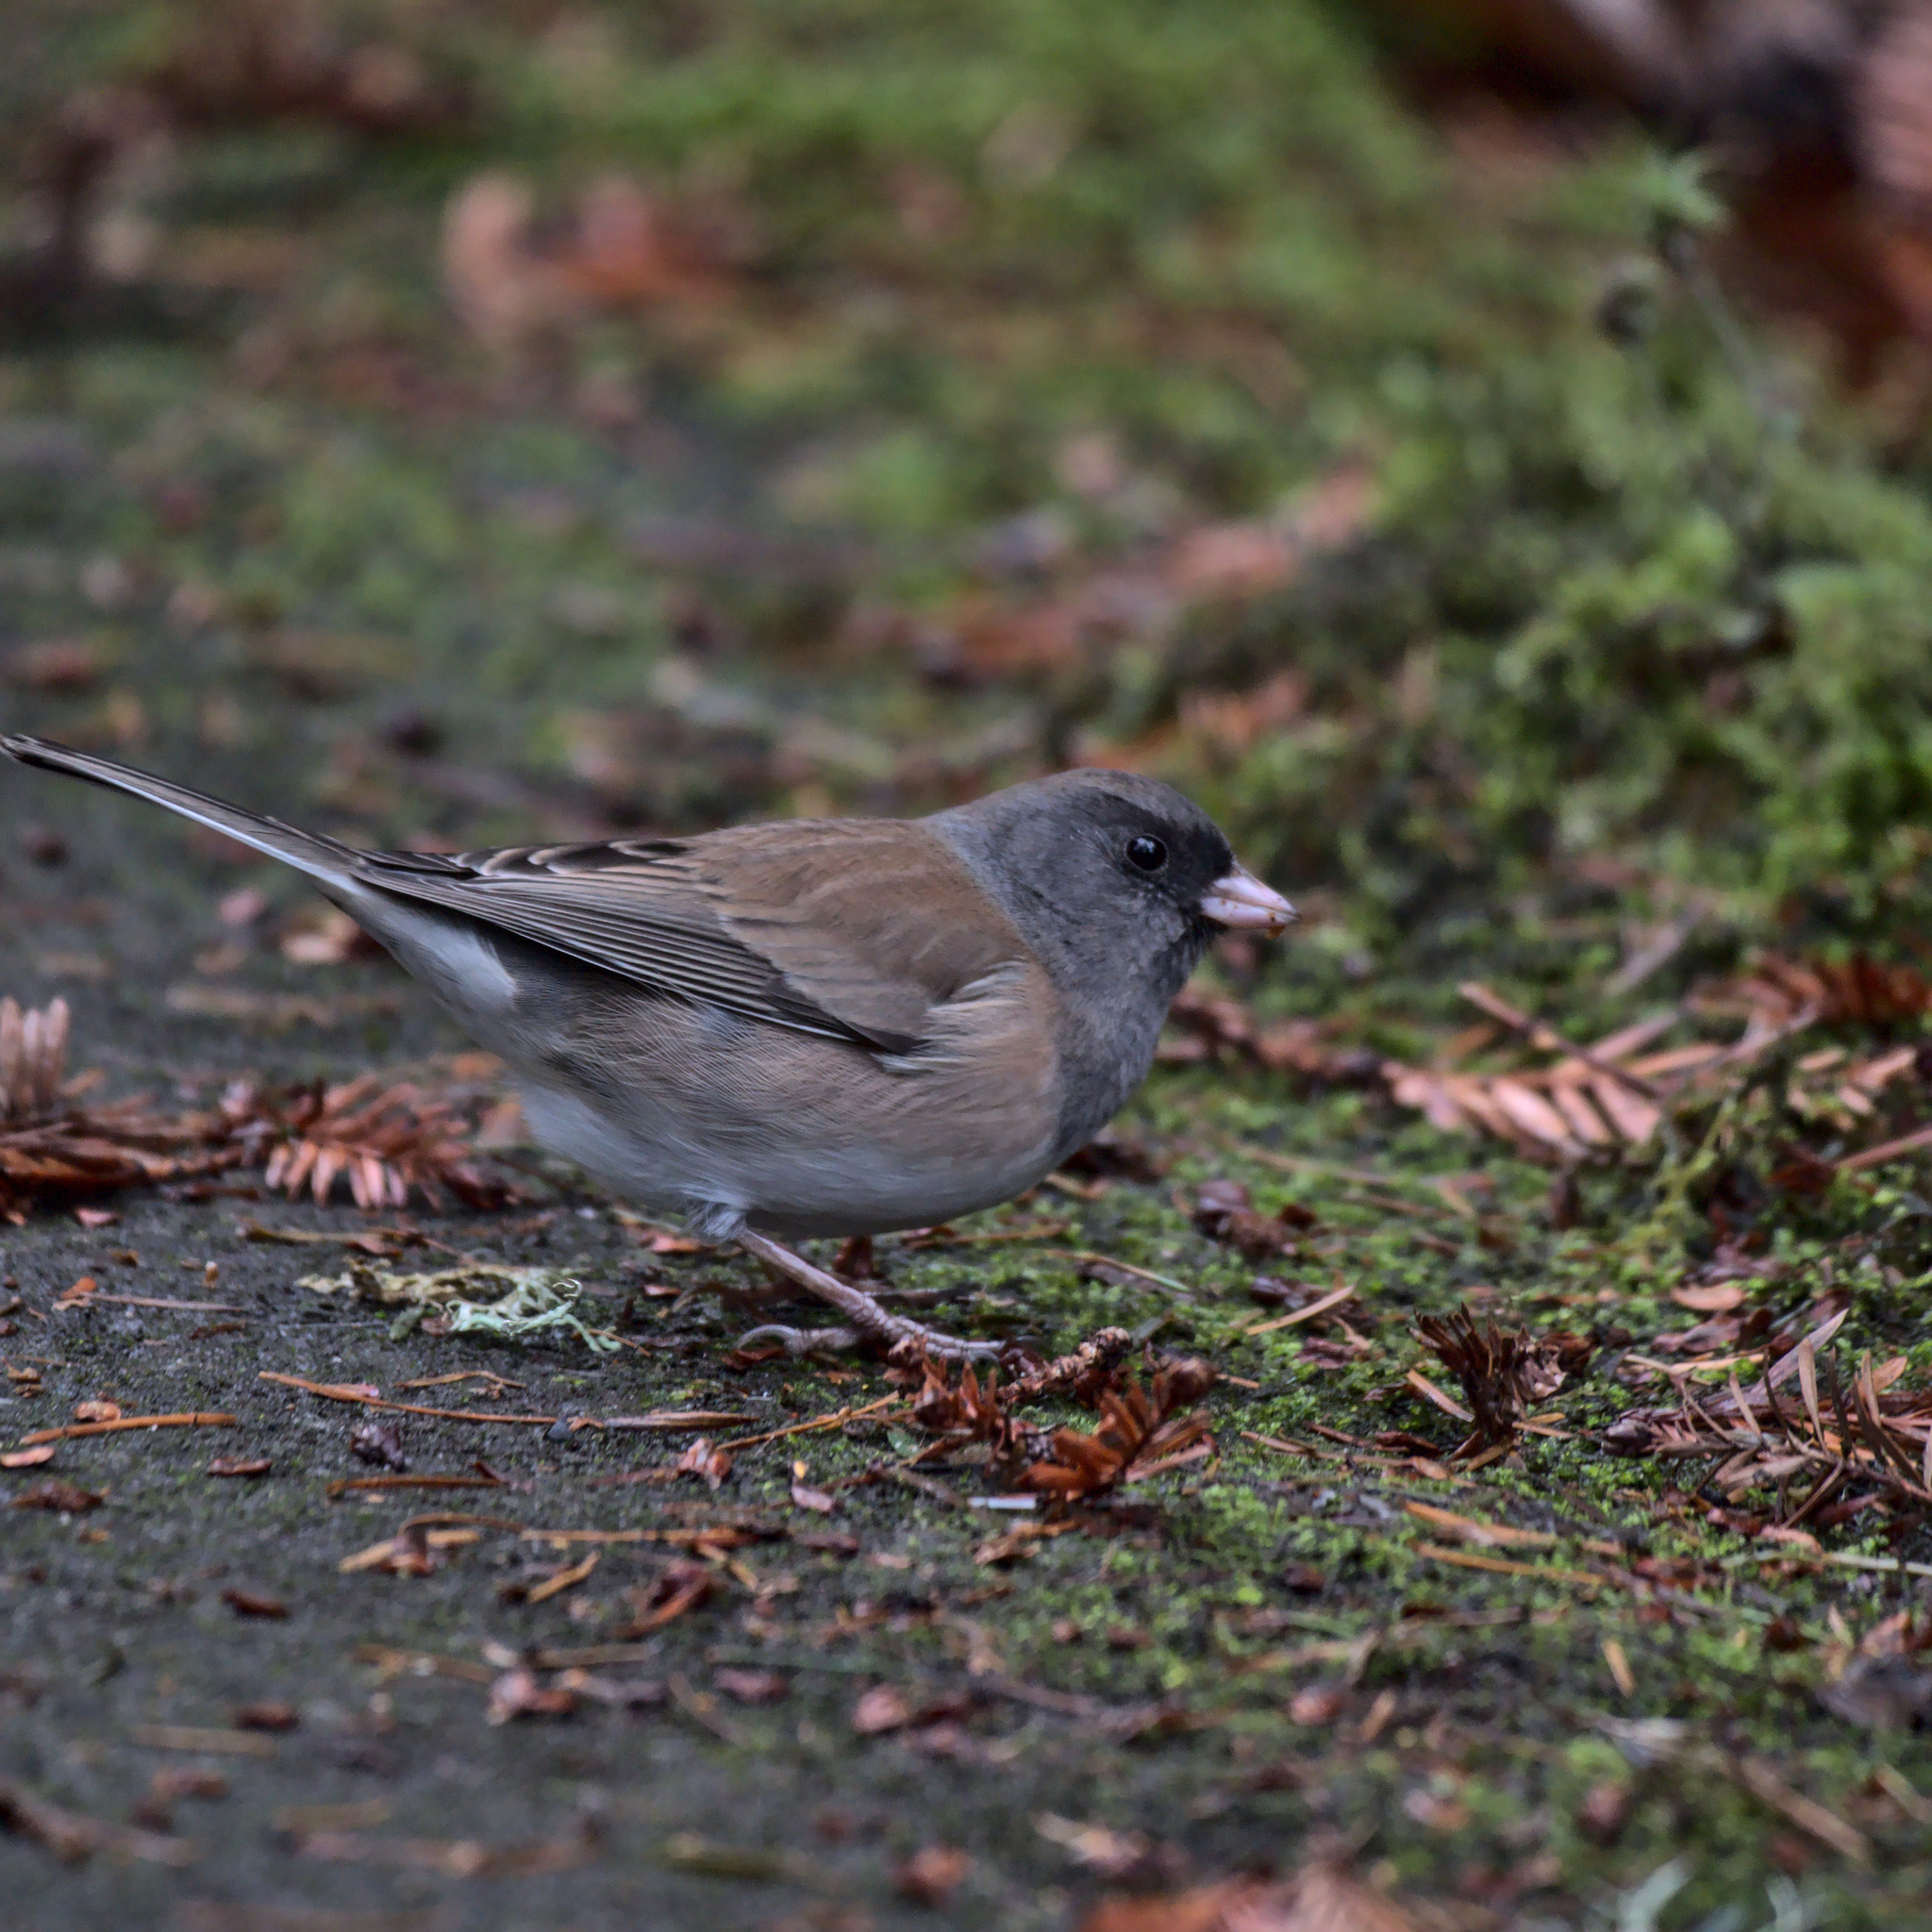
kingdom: Animalia
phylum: Chordata
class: Aves
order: Passeriformes
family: Passerellidae
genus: Junco
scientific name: Junco hyemalis
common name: Dark-eyed junco
